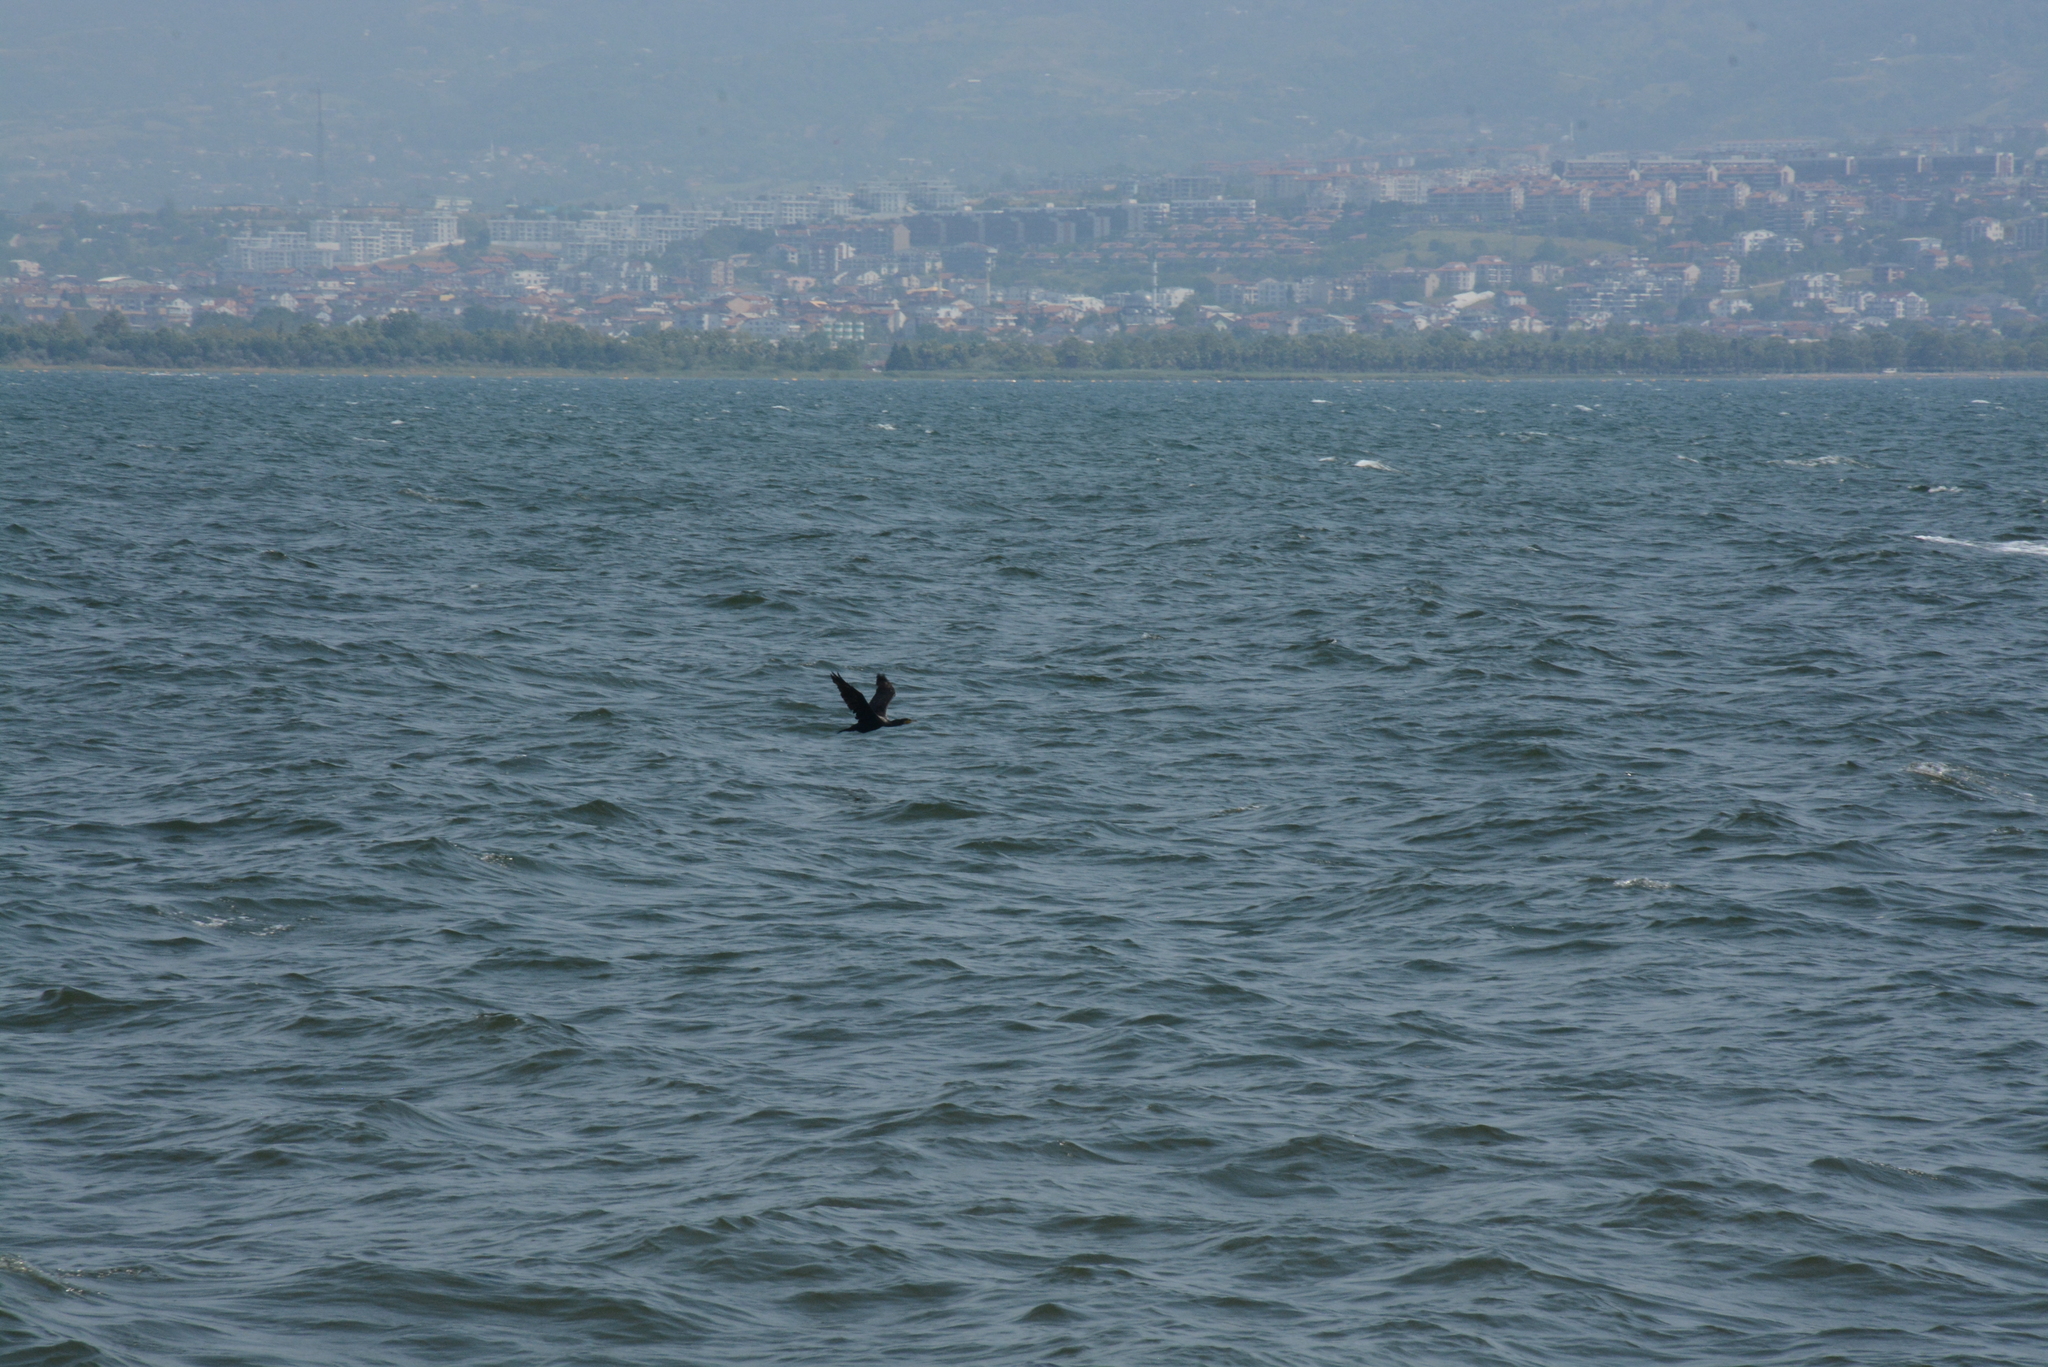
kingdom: Animalia
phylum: Chordata
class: Aves
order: Suliformes
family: Phalacrocoracidae
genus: Phalacrocorax
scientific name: Phalacrocorax carbo
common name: Great cormorant
